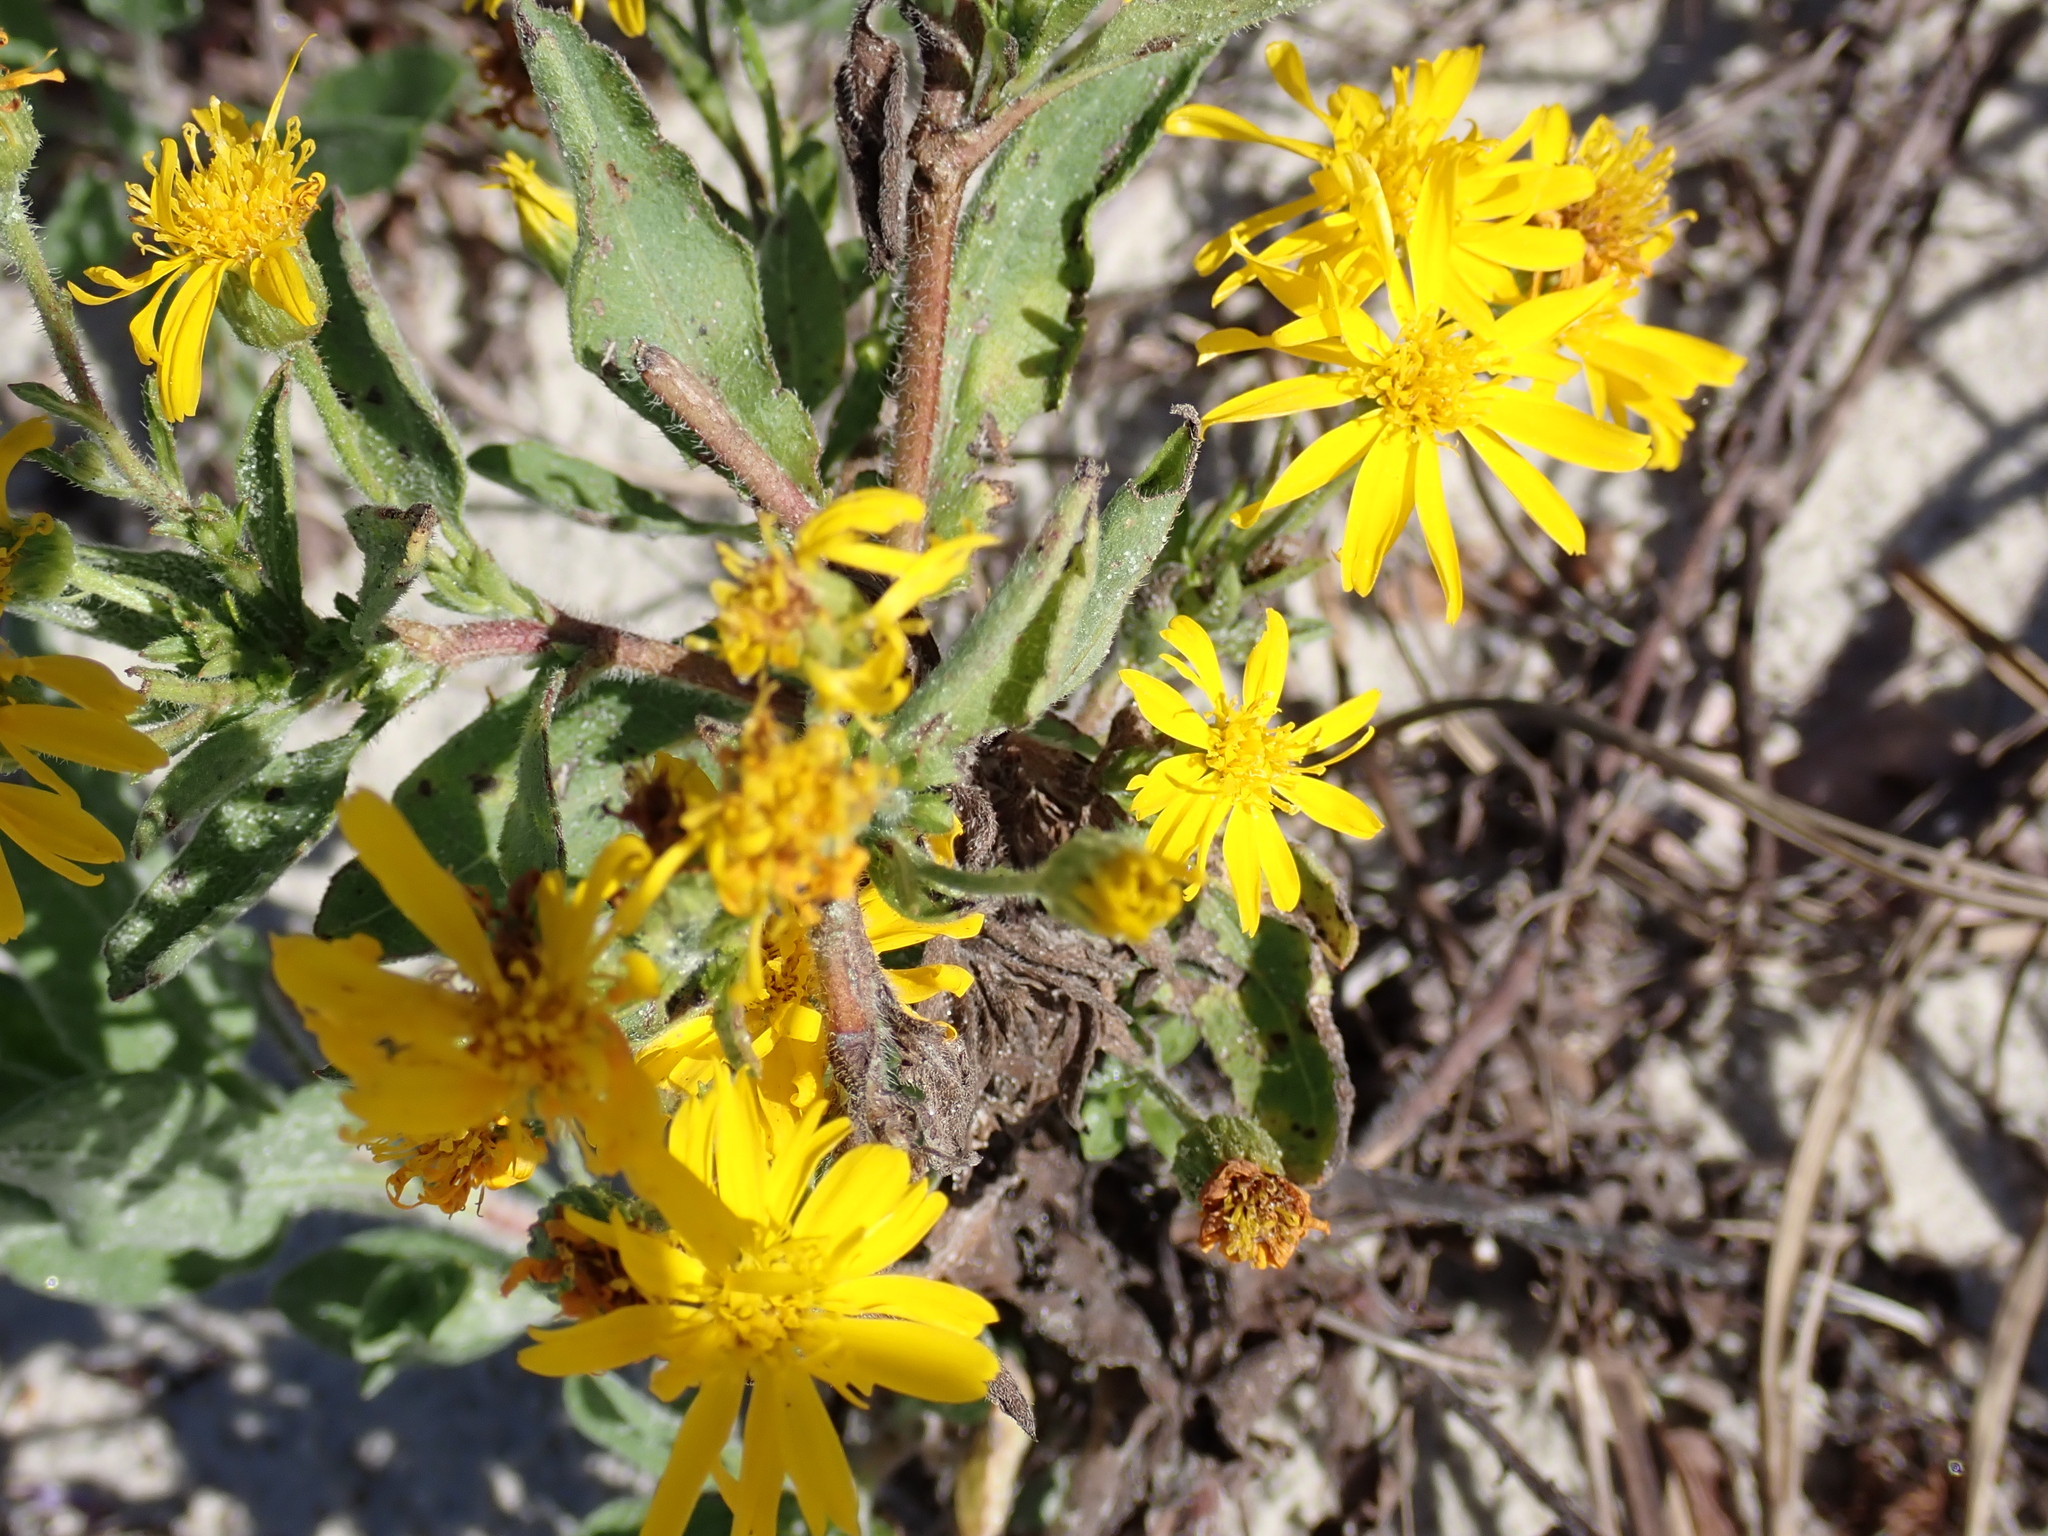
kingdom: Plantae
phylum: Tracheophyta
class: Magnoliopsida
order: Asterales
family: Asteraceae
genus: Heterotheca
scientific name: Heterotheca subaxillaris
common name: Camphorweed
